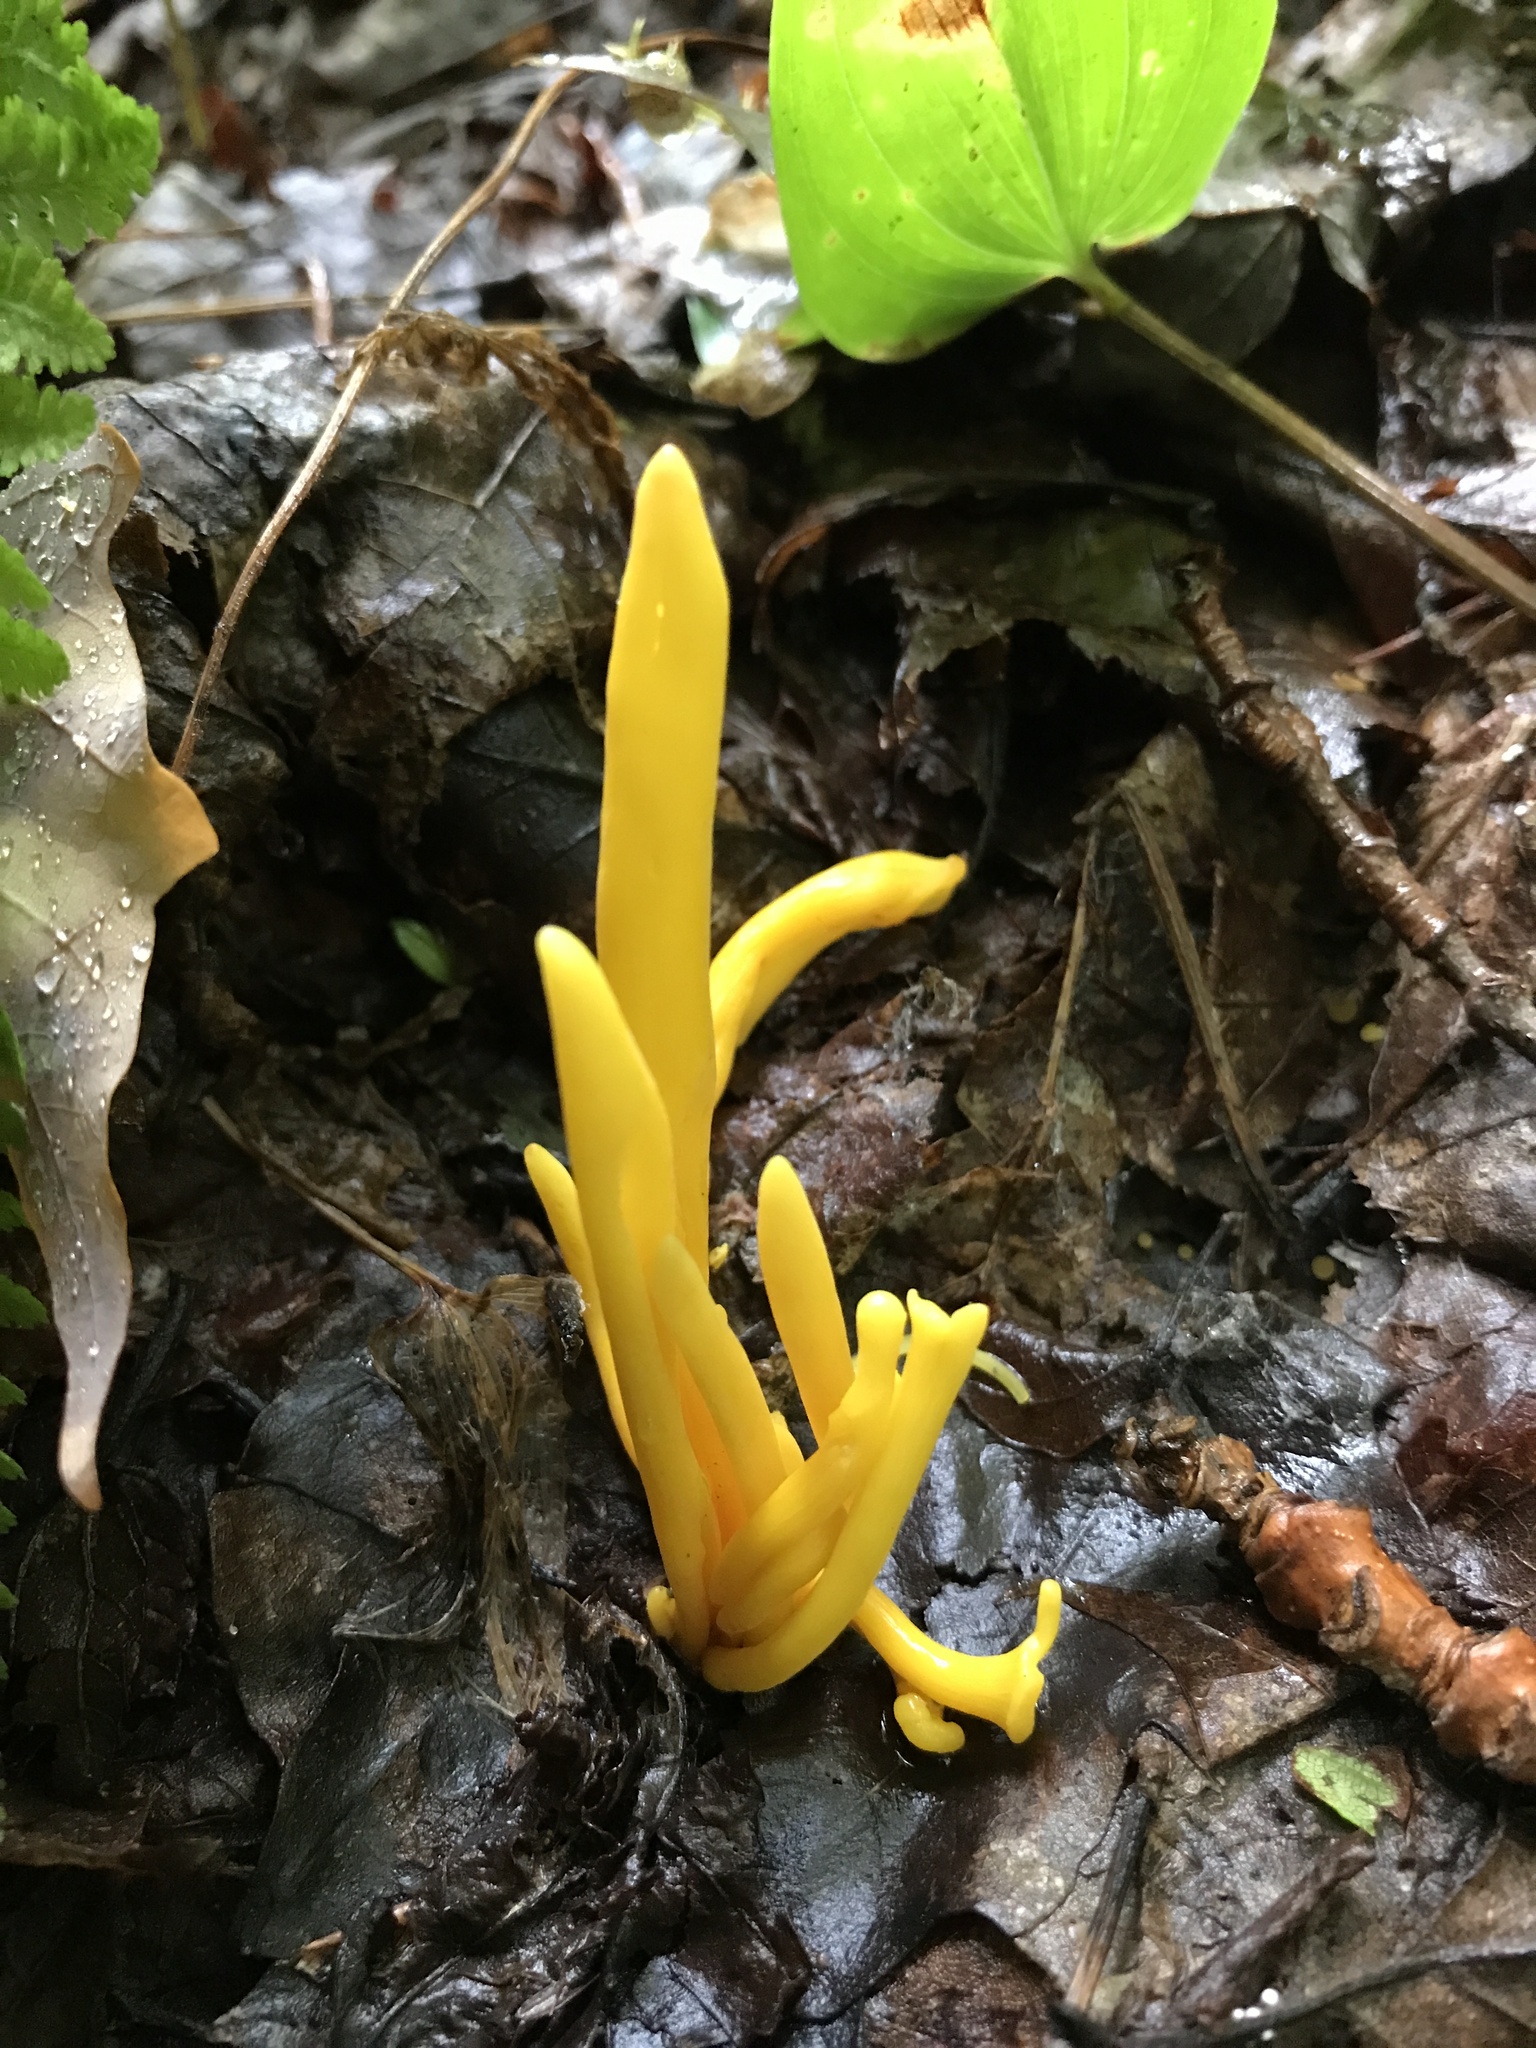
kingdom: Fungi
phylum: Basidiomycota
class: Agaricomycetes
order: Agaricales
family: Clavariaceae
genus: Clavulinopsis
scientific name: Clavulinopsis fusiformis
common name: Golden spindles
